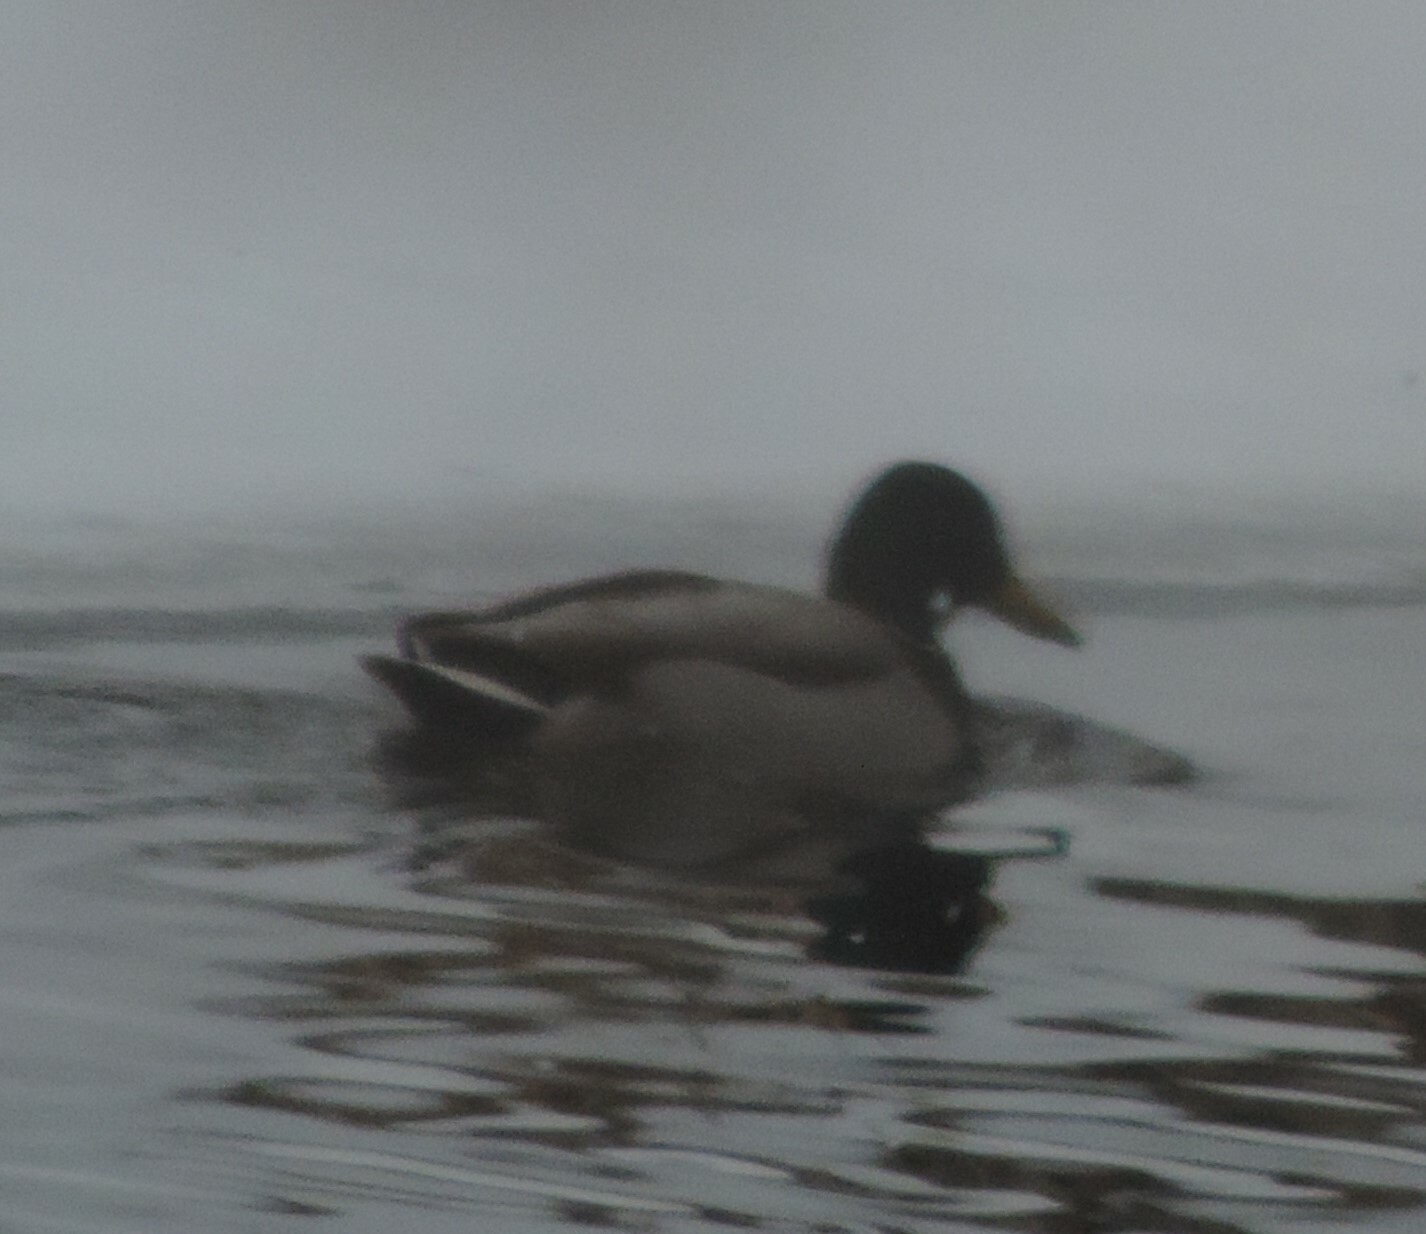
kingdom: Animalia
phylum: Chordata
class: Aves
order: Anseriformes
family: Anatidae
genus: Anas
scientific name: Anas platyrhynchos
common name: Mallard
